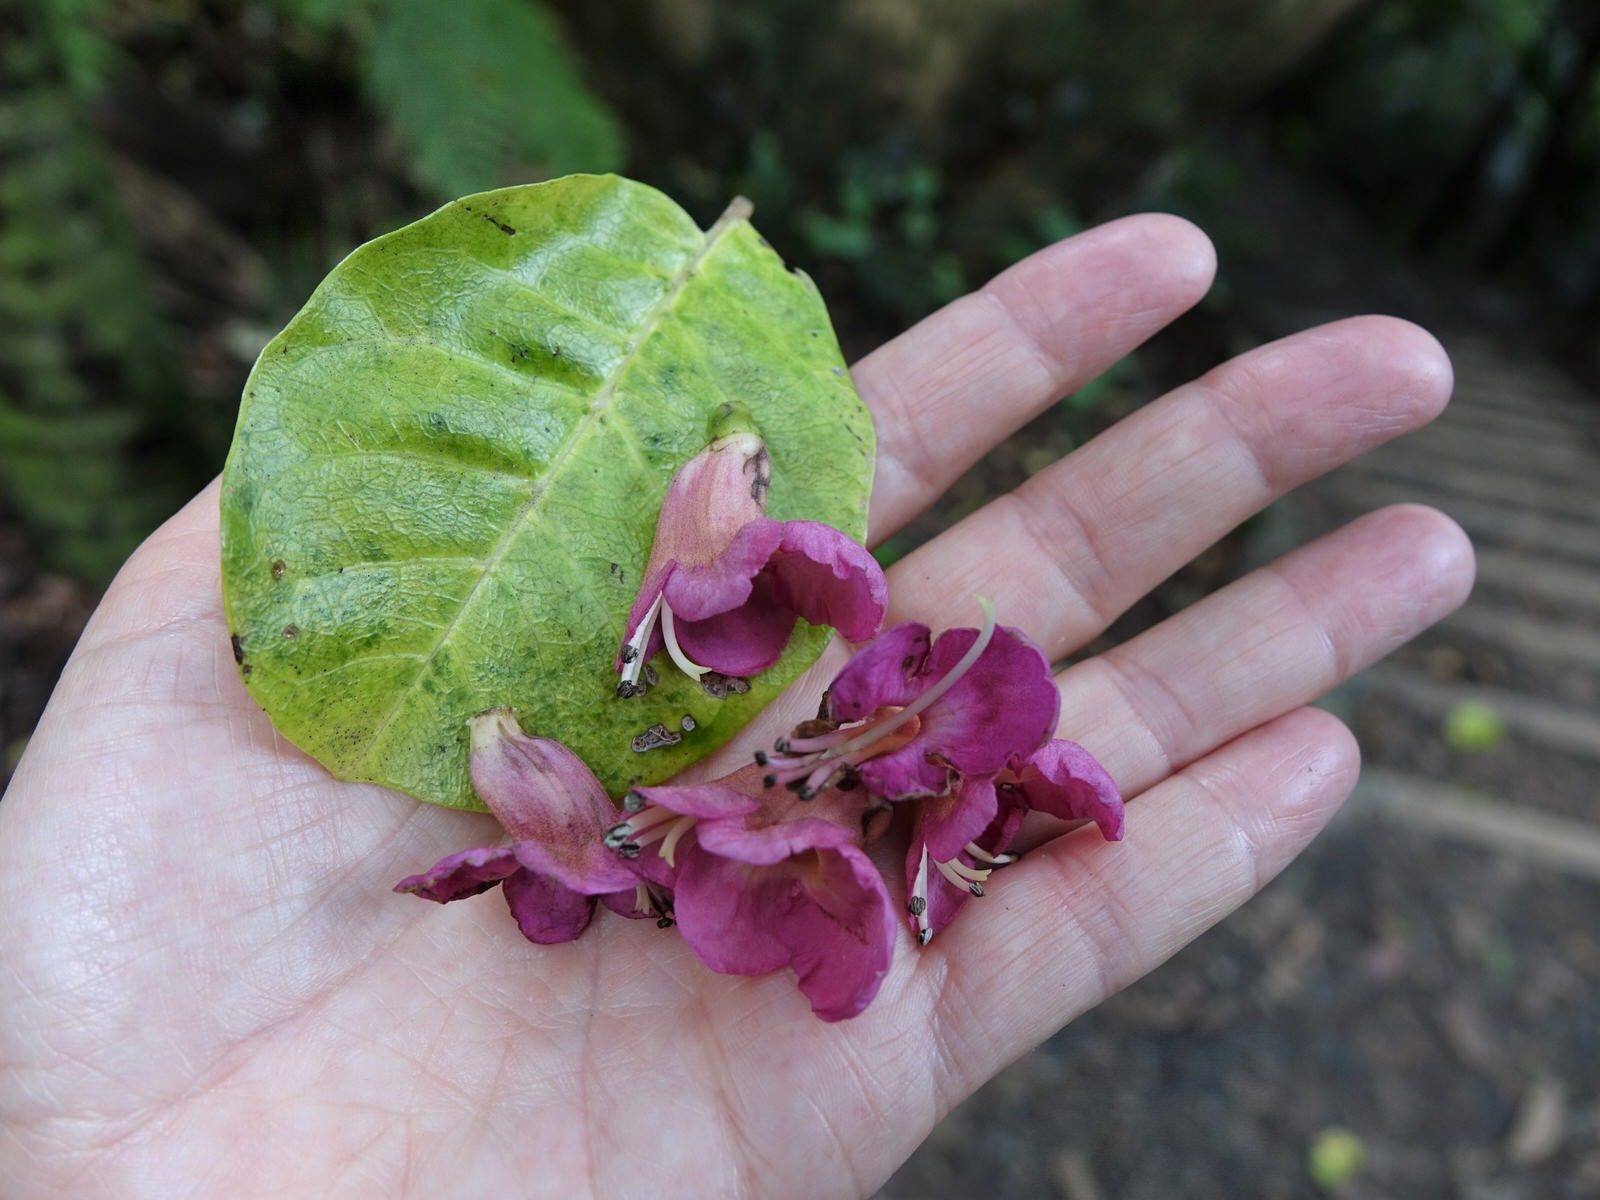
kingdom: Plantae
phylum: Tracheophyta
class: Magnoliopsida
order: Lamiales
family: Lamiaceae
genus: Vitex
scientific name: Vitex lucens
